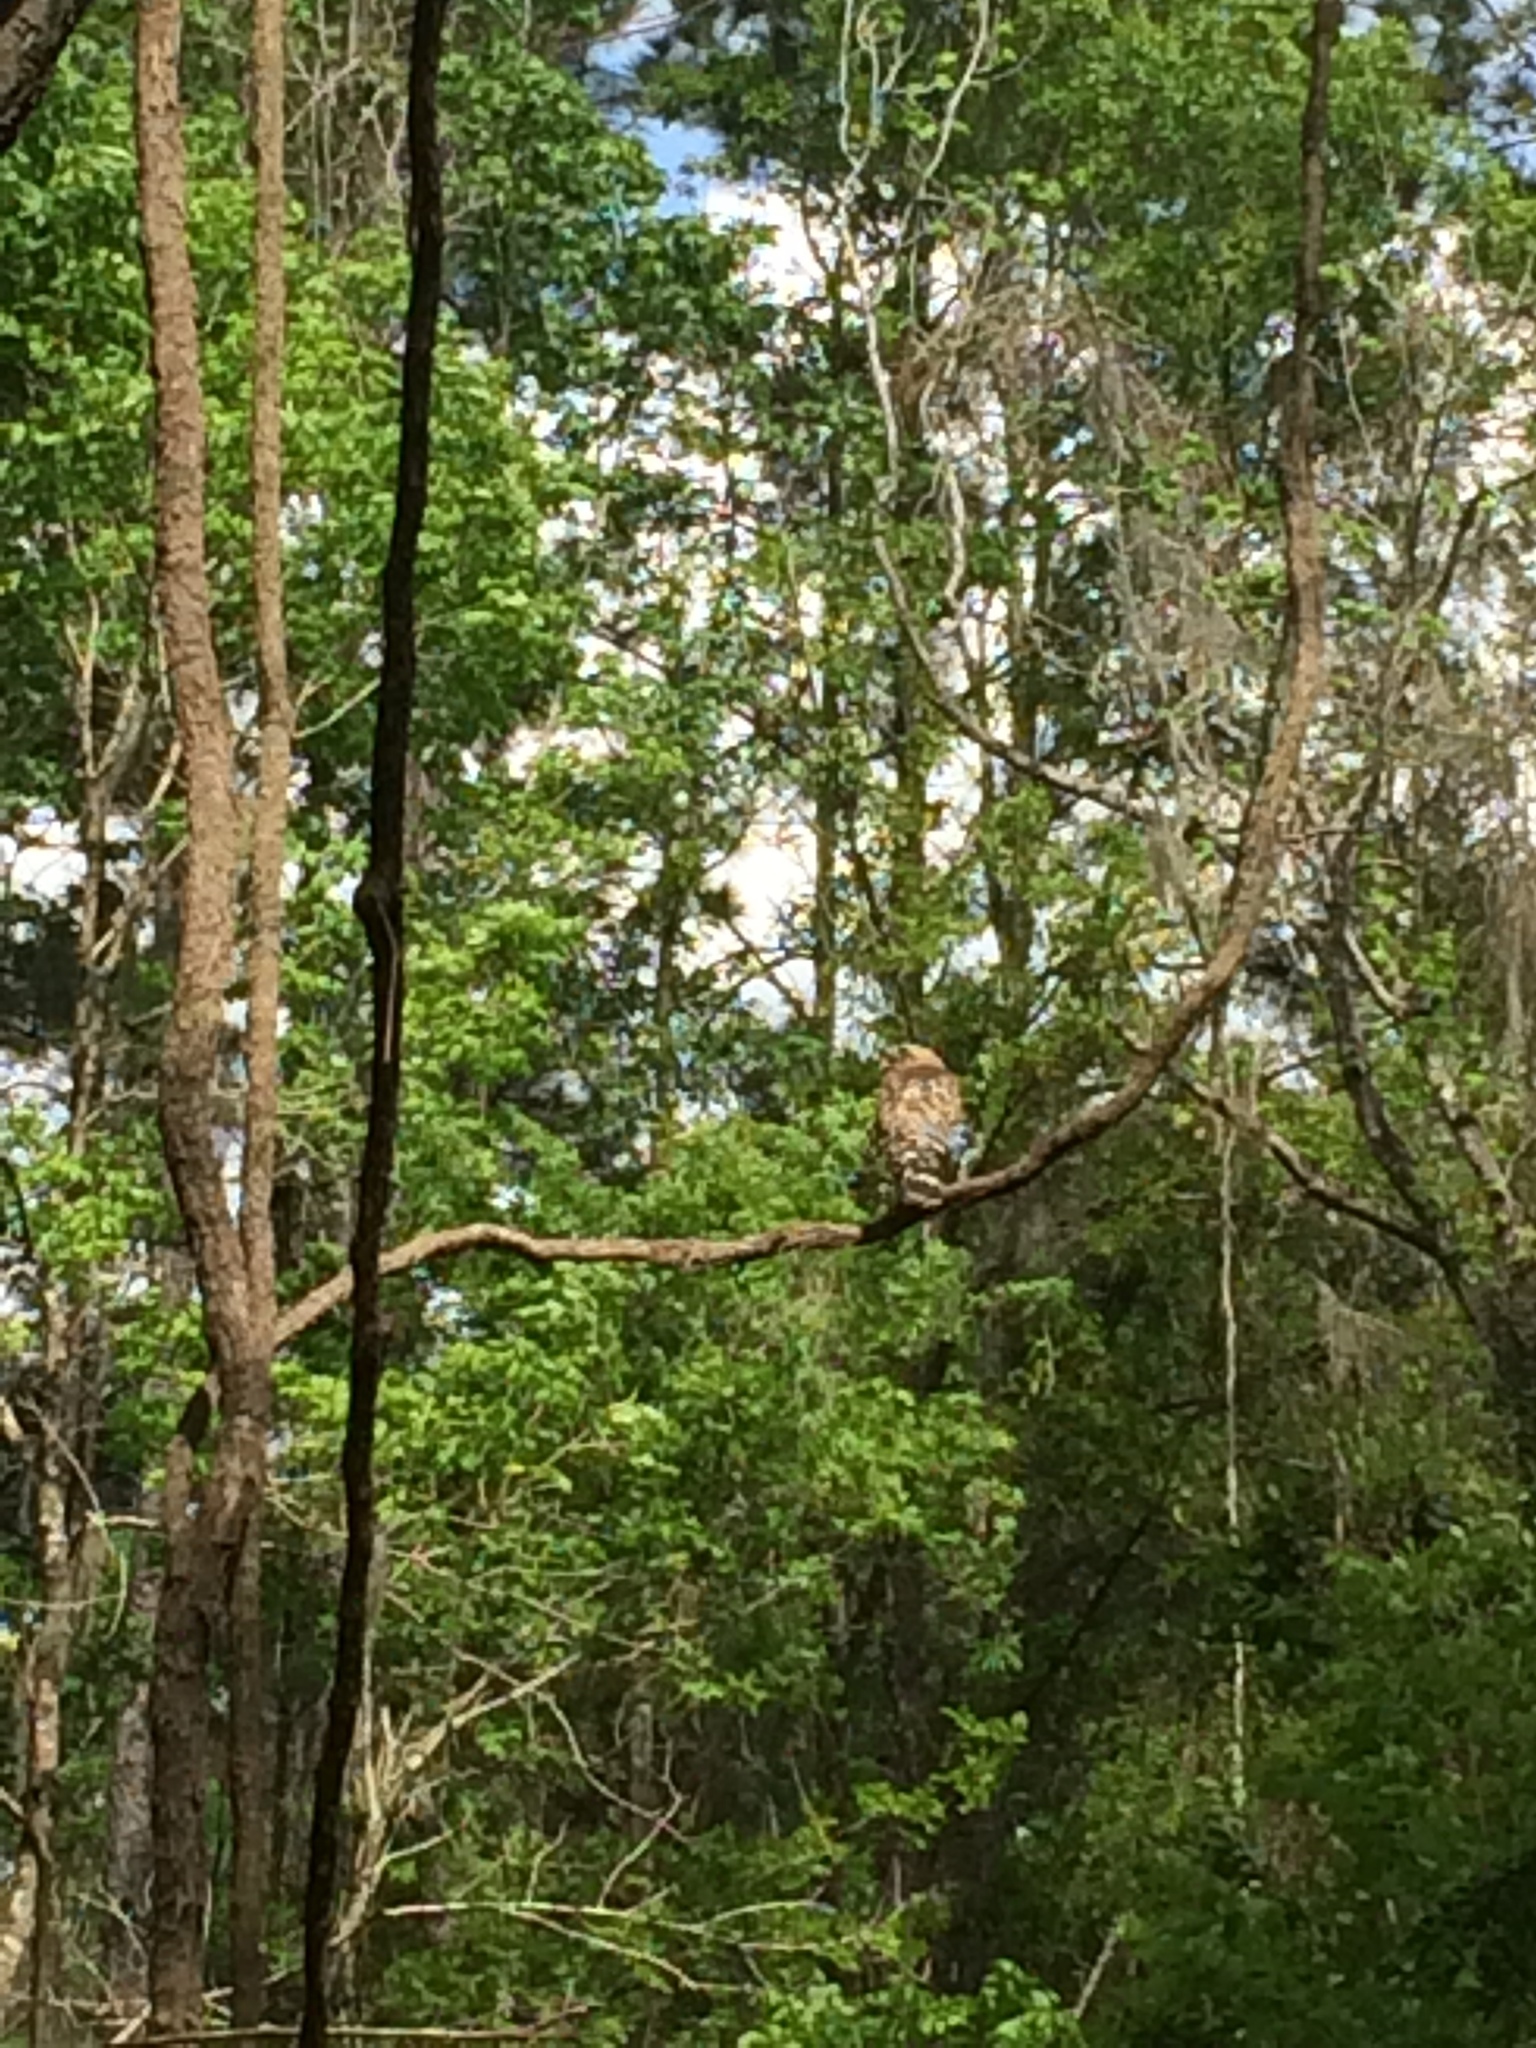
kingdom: Animalia
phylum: Chordata
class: Aves
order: Accipitriformes
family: Accipitridae
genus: Buteo
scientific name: Buteo lineatus
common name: Red-shouldered hawk
